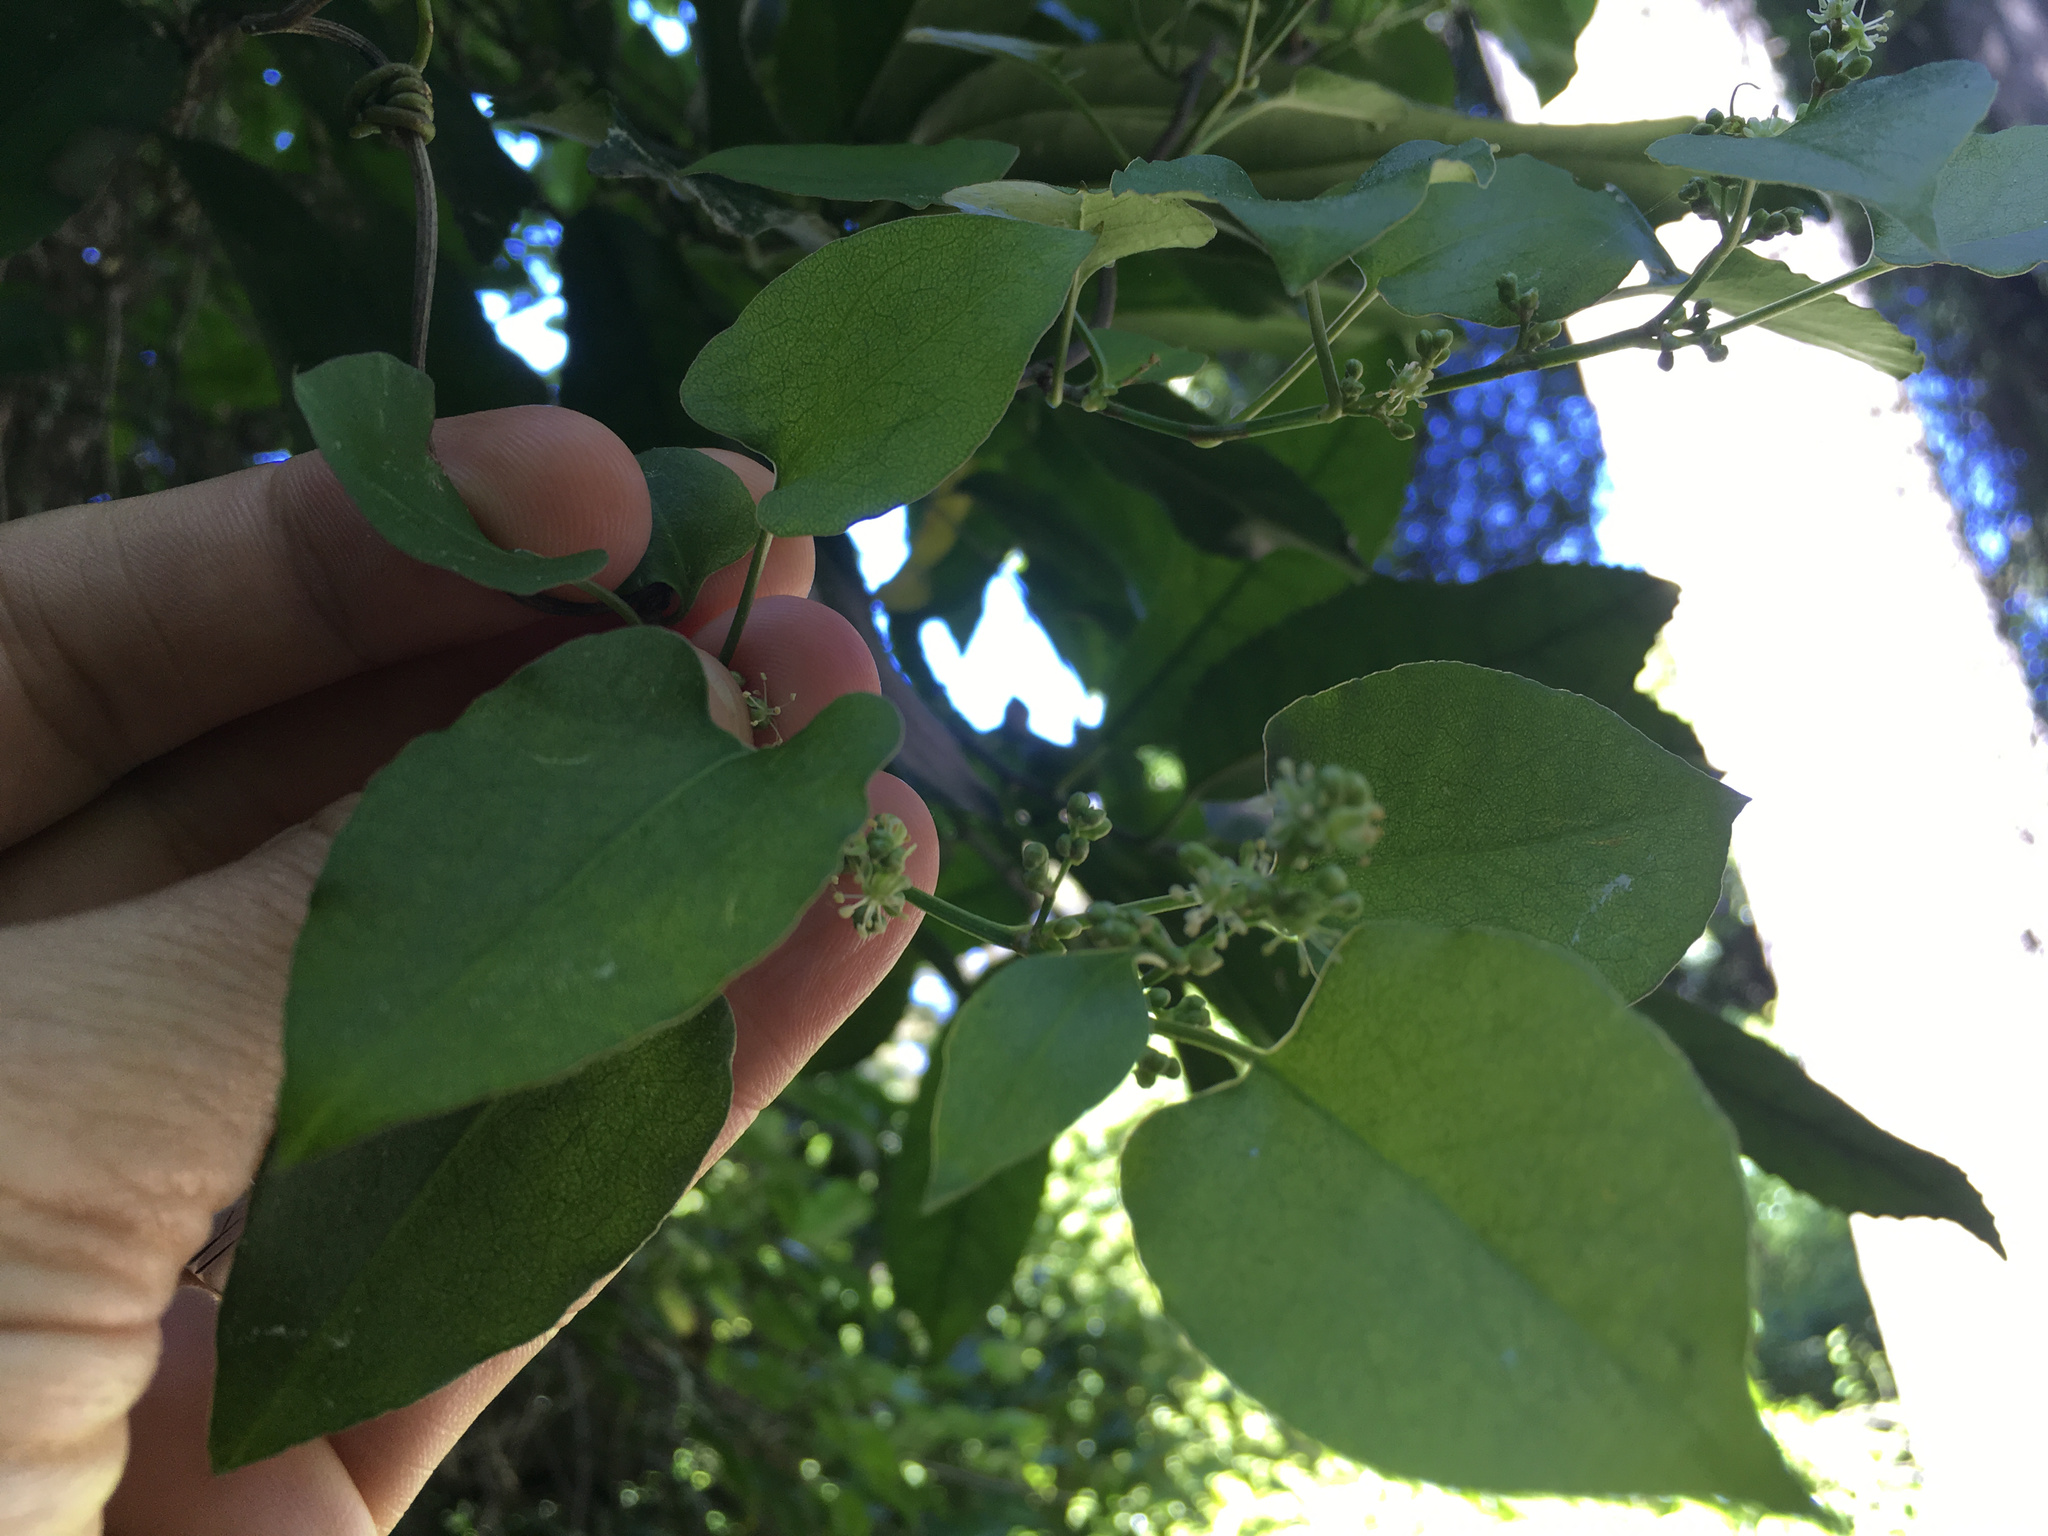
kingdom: Plantae
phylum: Tracheophyta
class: Magnoliopsida
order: Caryophyllales
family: Polygonaceae
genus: Muehlenbeckia
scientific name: Muehlenbeckia australis
